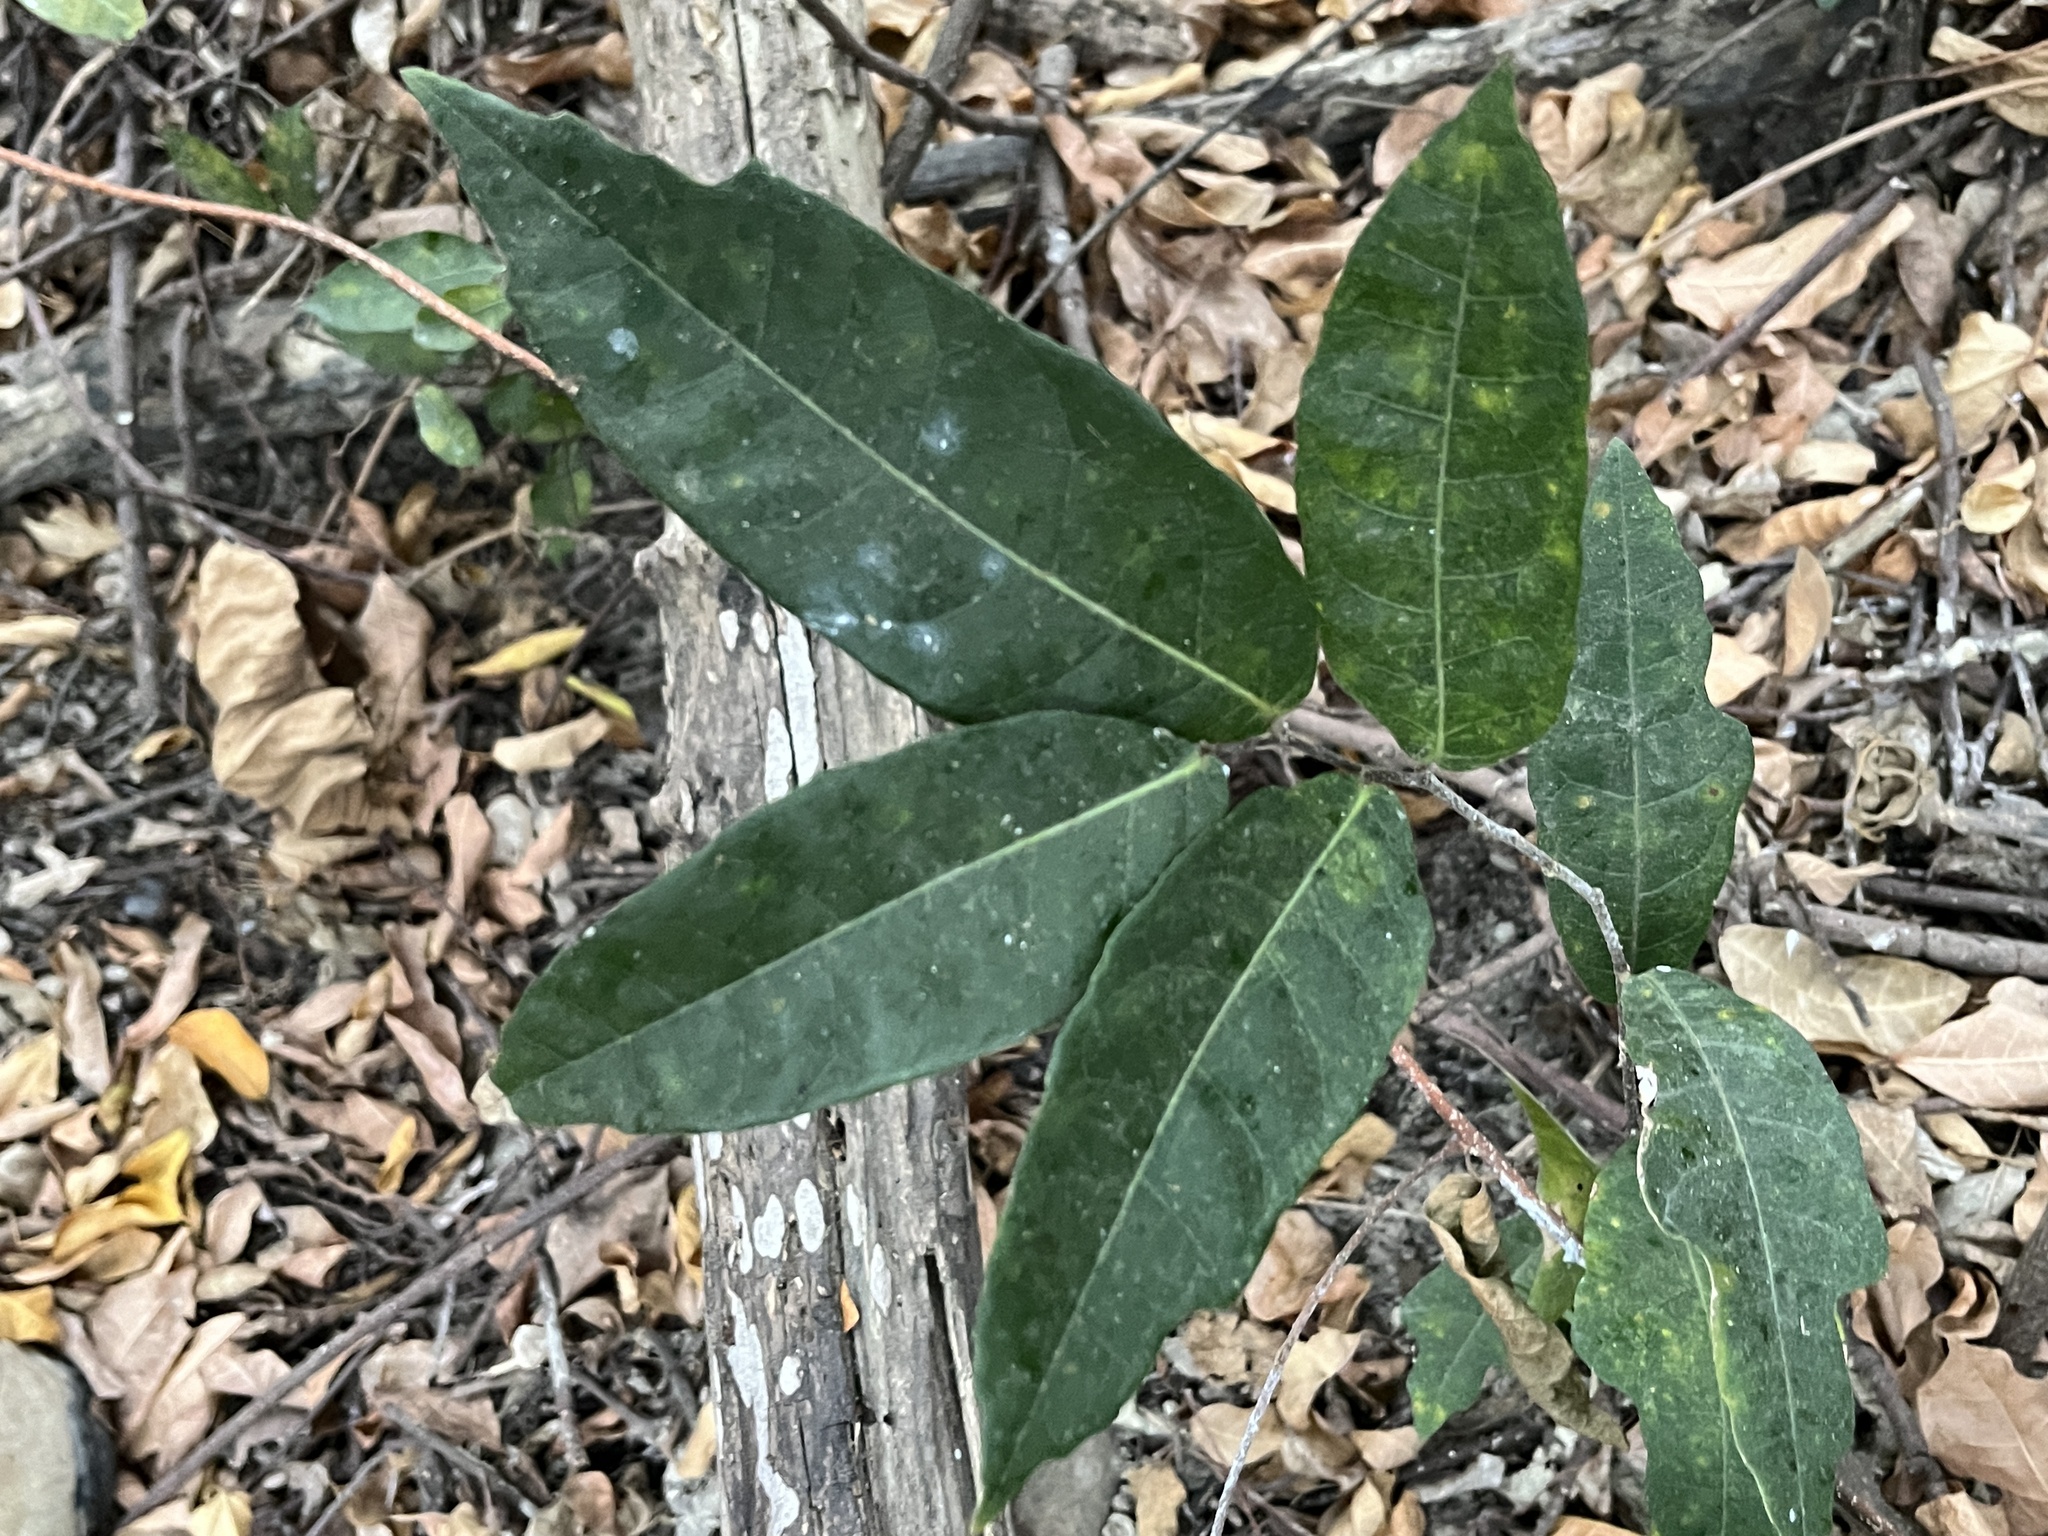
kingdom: Plantae
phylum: Tracheophyta
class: Magnoliopsida
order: Rosales
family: Moraceae
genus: Malaisia
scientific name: Malaisia scandens
